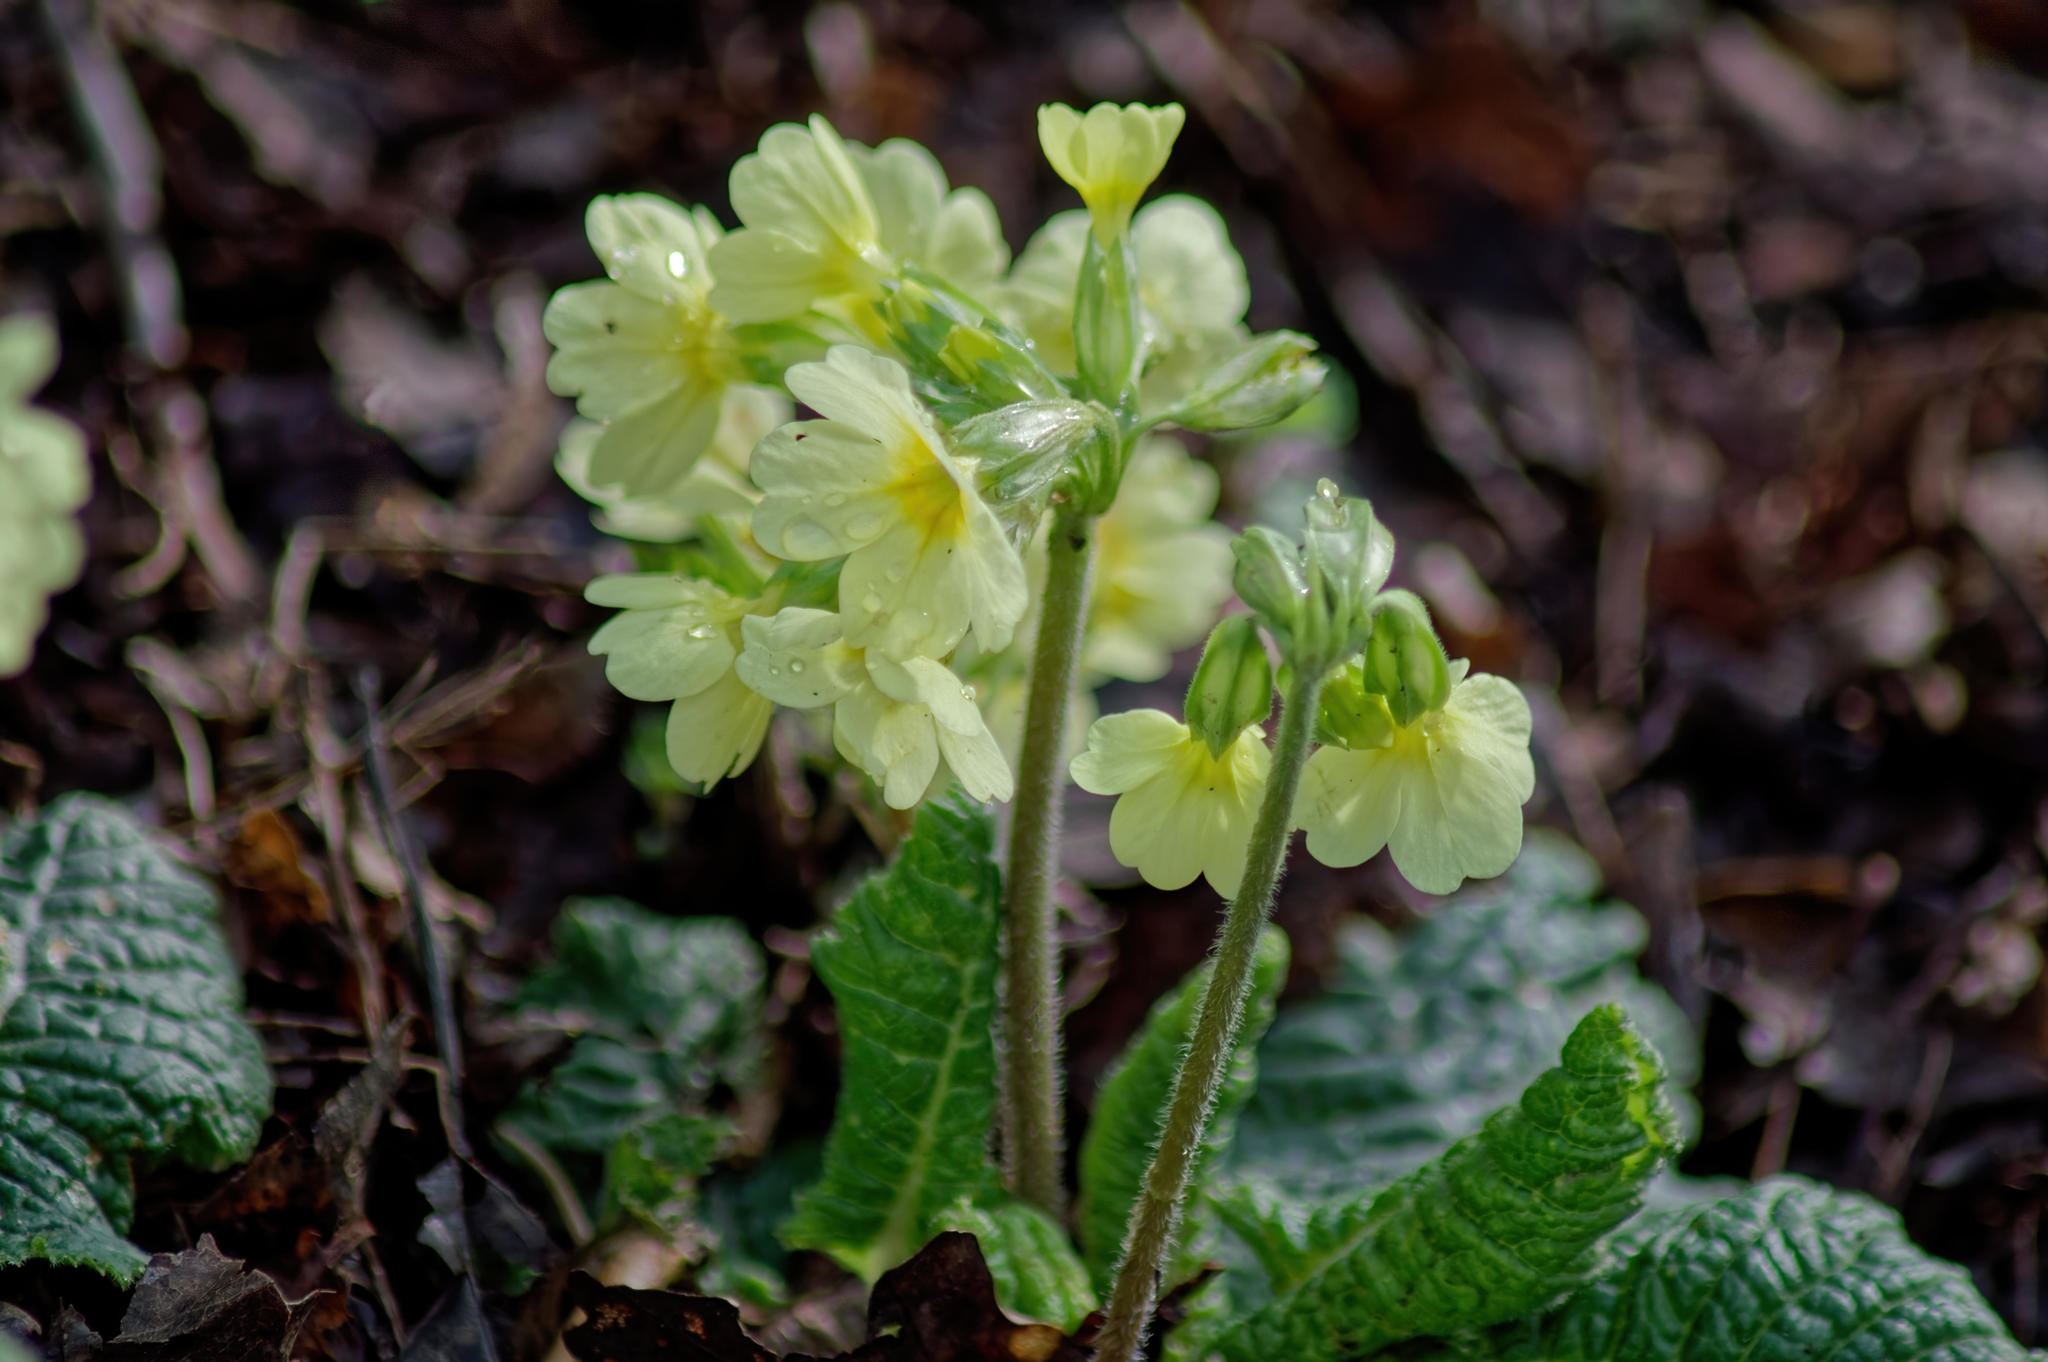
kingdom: Plantae
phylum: Tracheophyta
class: Magnoliopsida
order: Ericales
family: Primulaceae
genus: Primula
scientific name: Primula elatior
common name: Oxlip
